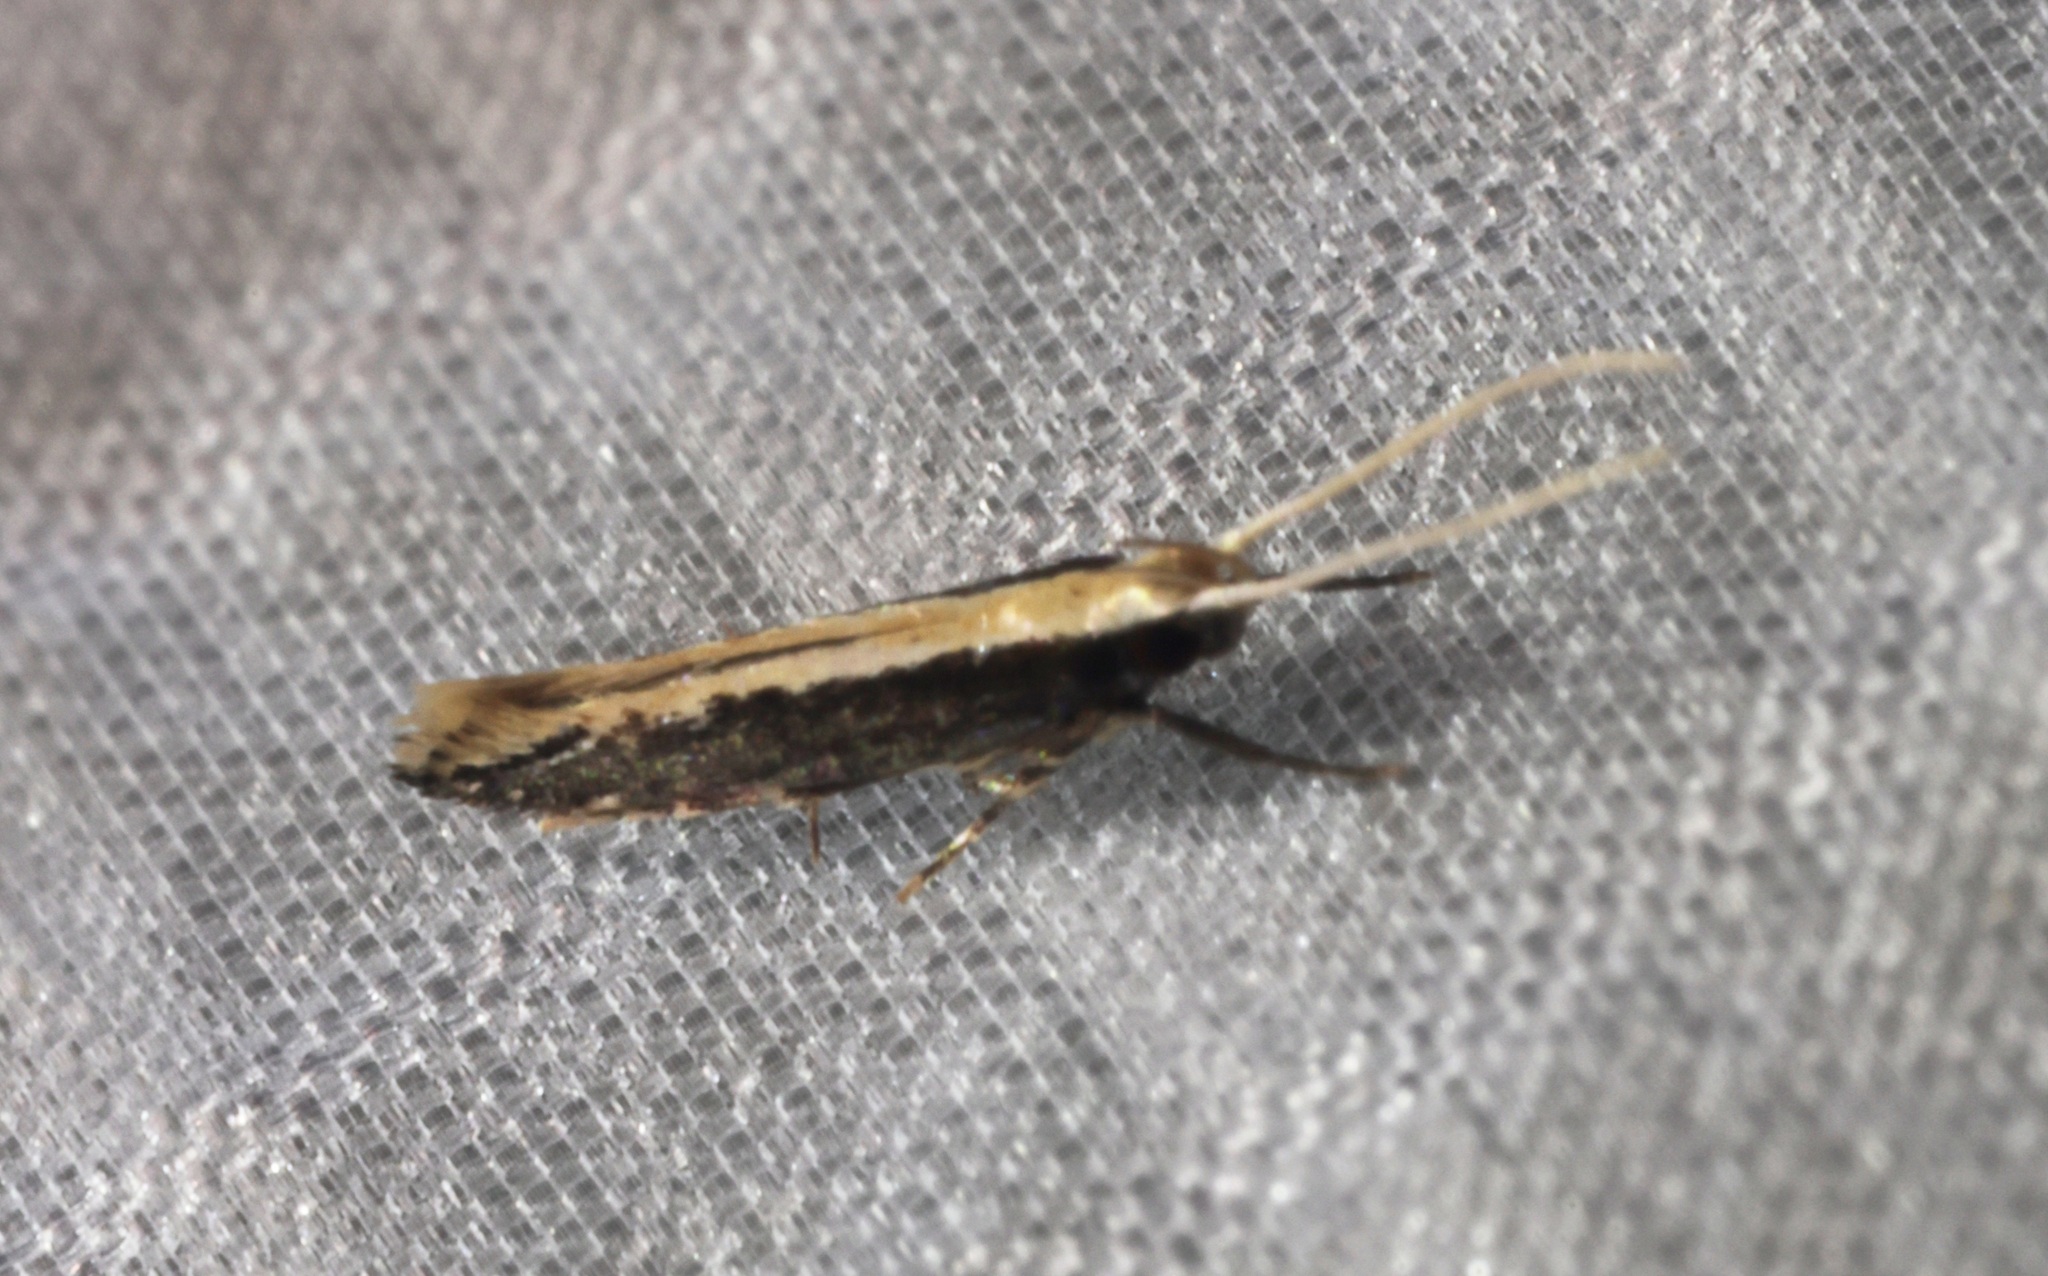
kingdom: Animalia
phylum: Arthropoda
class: Insecta
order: Lepidoptera
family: Cosmopterigidae
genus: Labdia
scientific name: Labdia oxychlora
